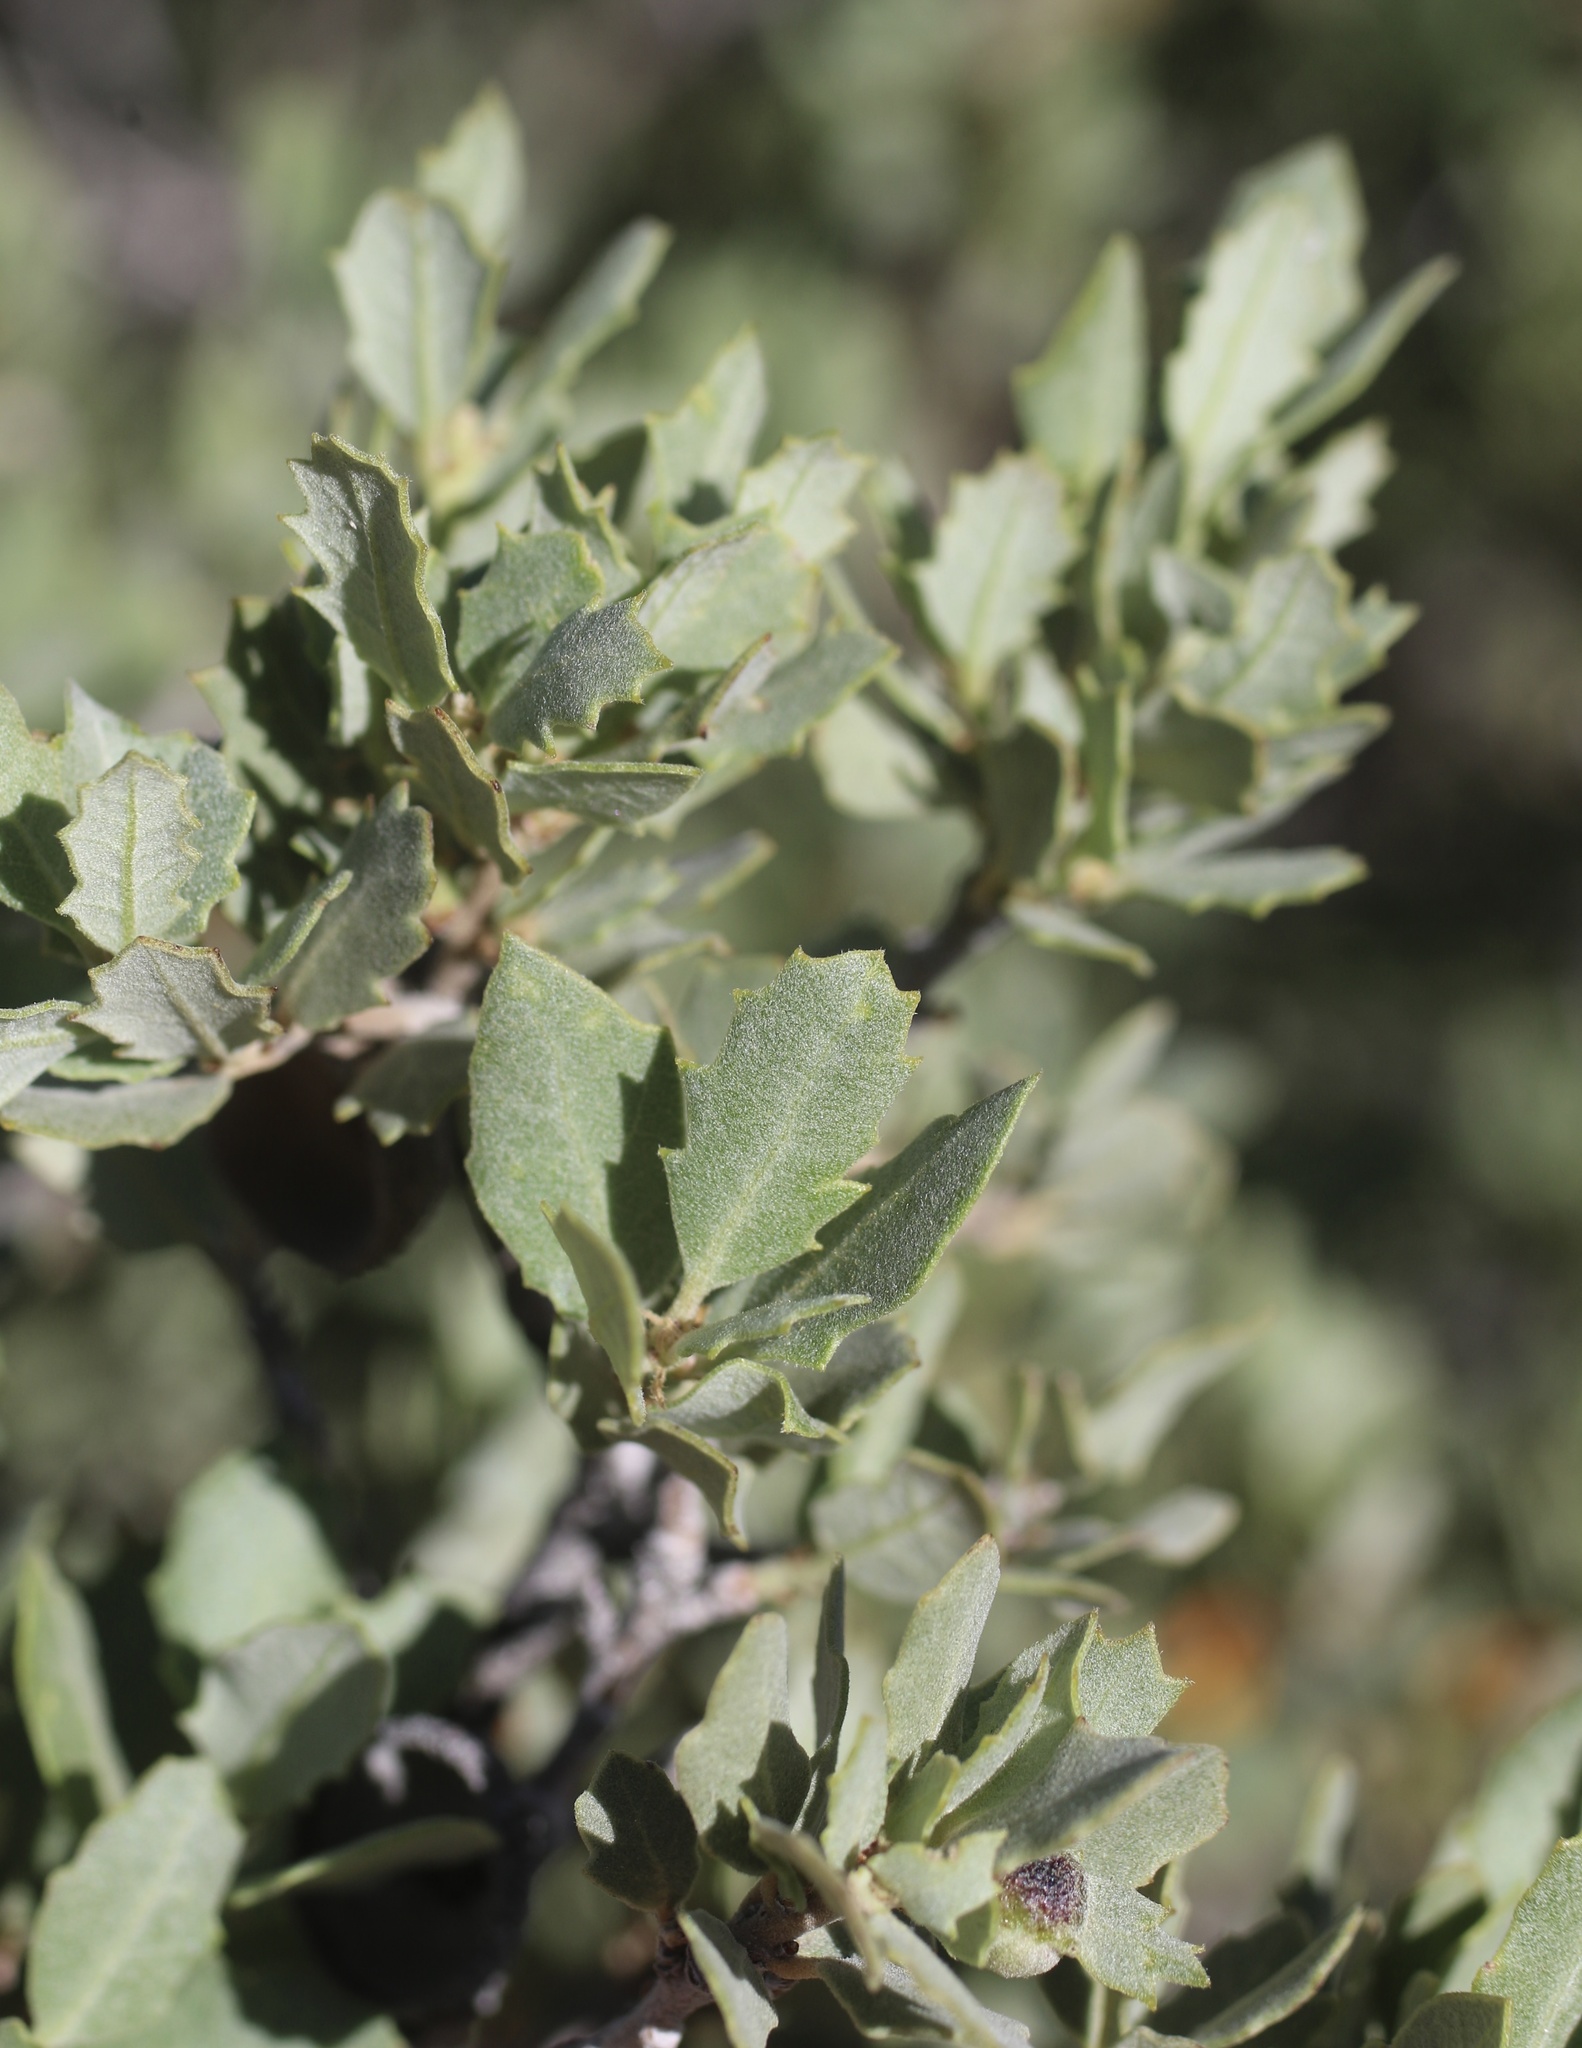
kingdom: Plantae
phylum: Tracheophyta
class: Magnoliopsida
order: Fagales
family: Fagaceae
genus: Quercus
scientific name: Quercus cornelius-mulleri
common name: Muller oak
